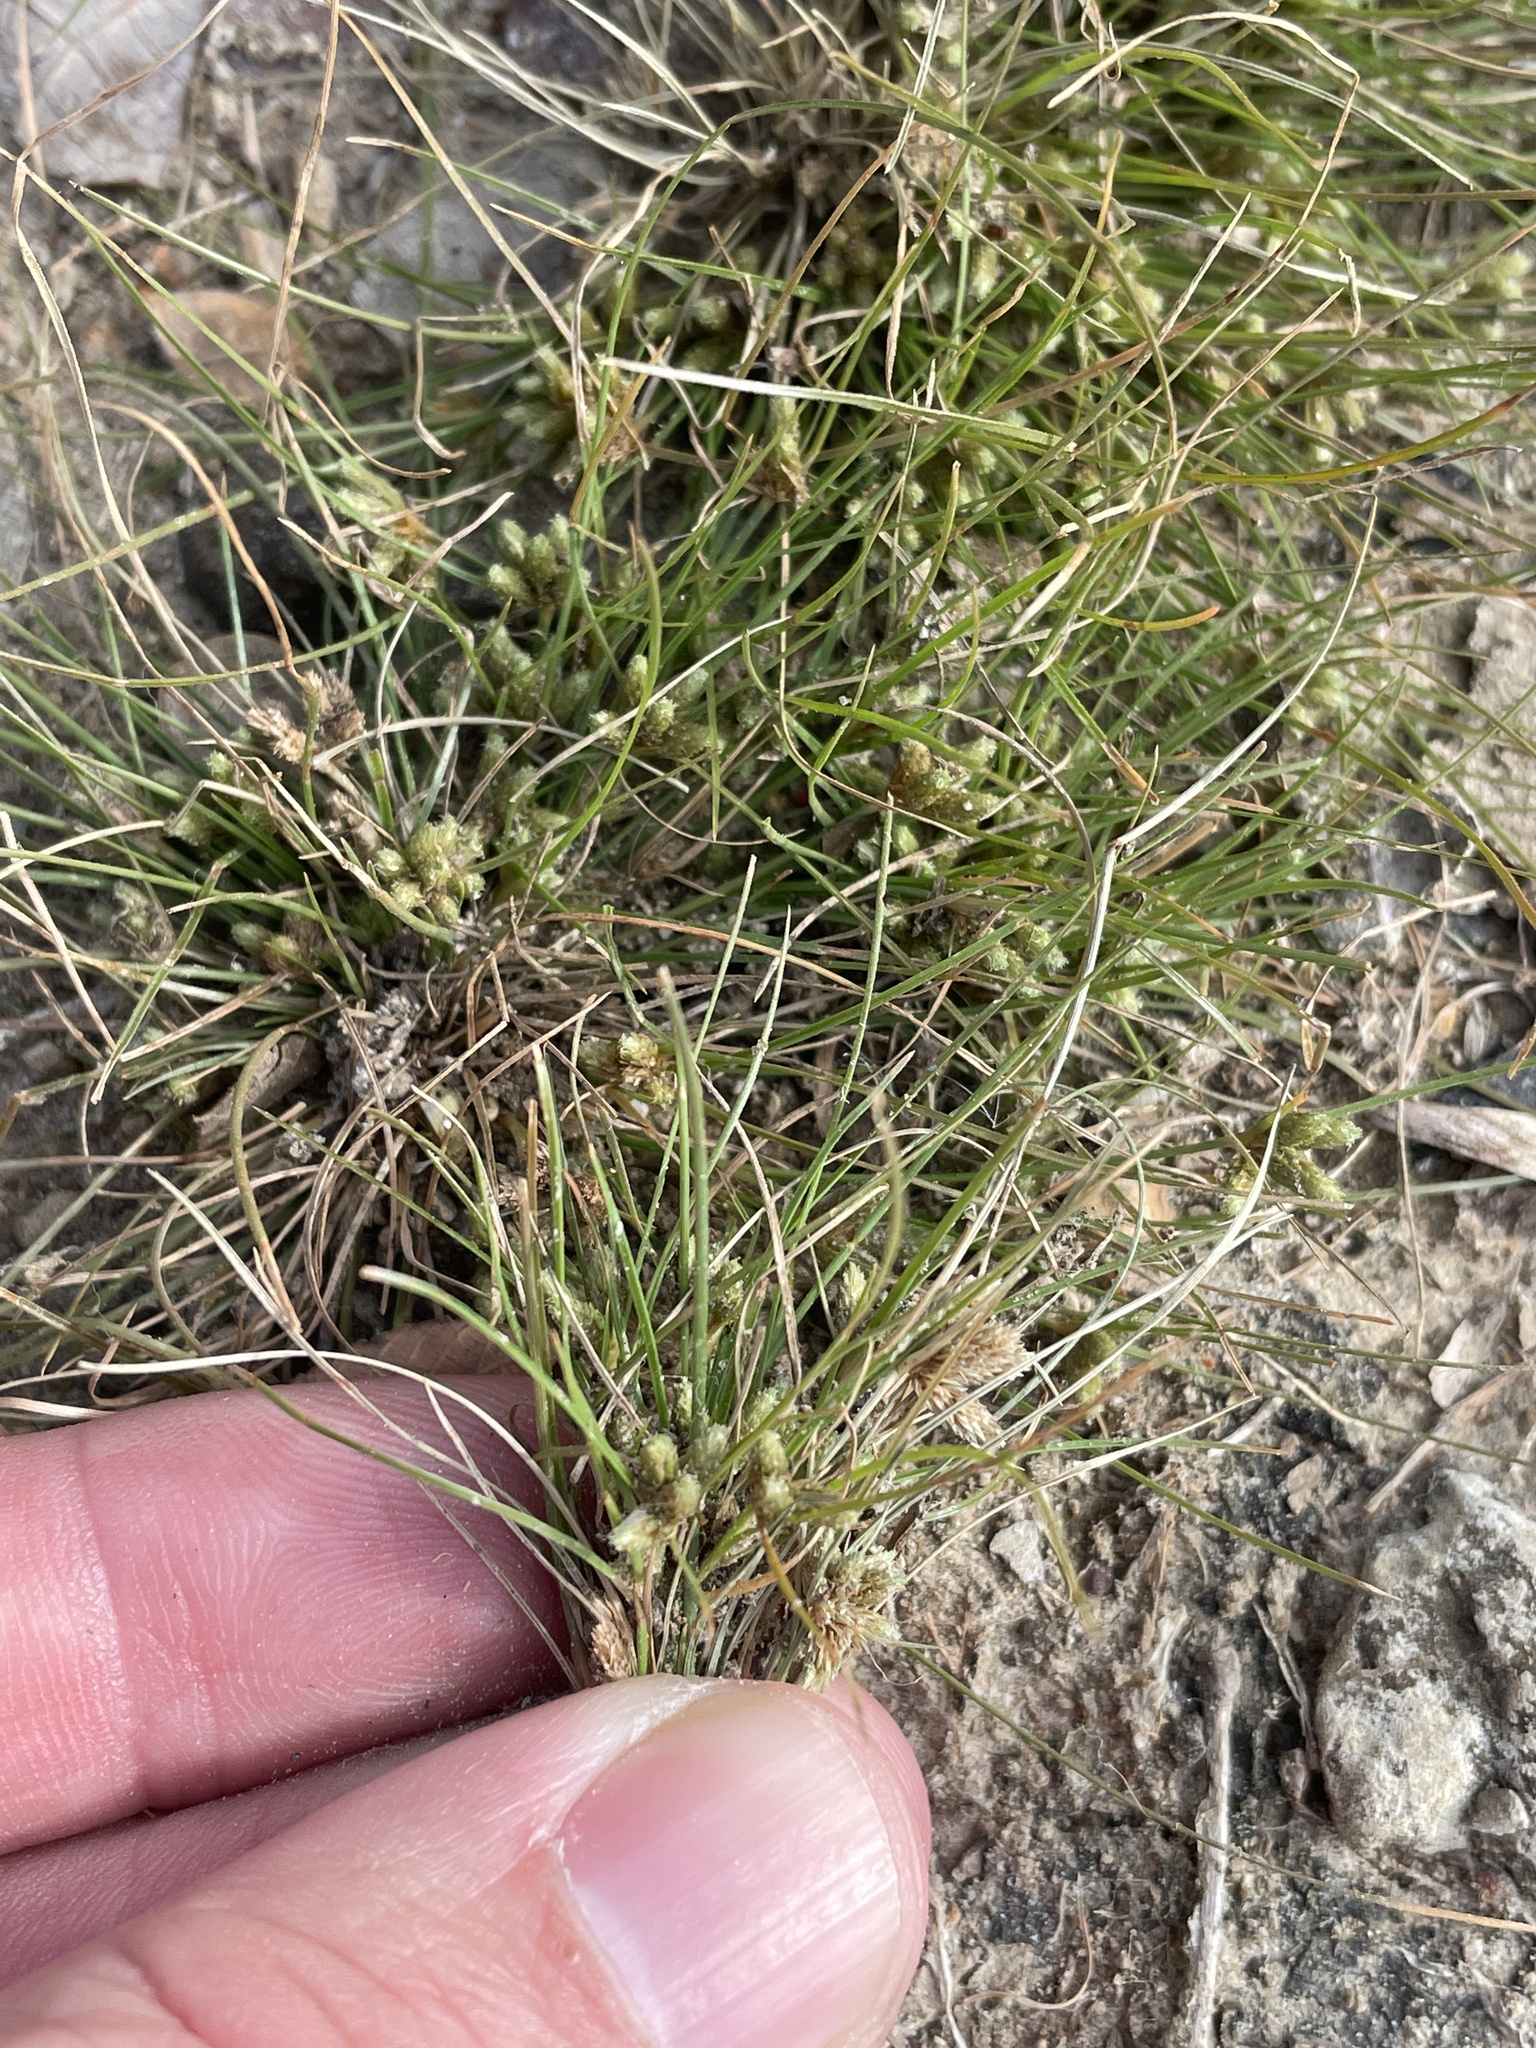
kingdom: Plantae
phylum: Tracheophyta
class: Liliopsida
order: Poales
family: Cyperaceae
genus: Fimbristylis
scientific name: Fimbristylis vahlii
